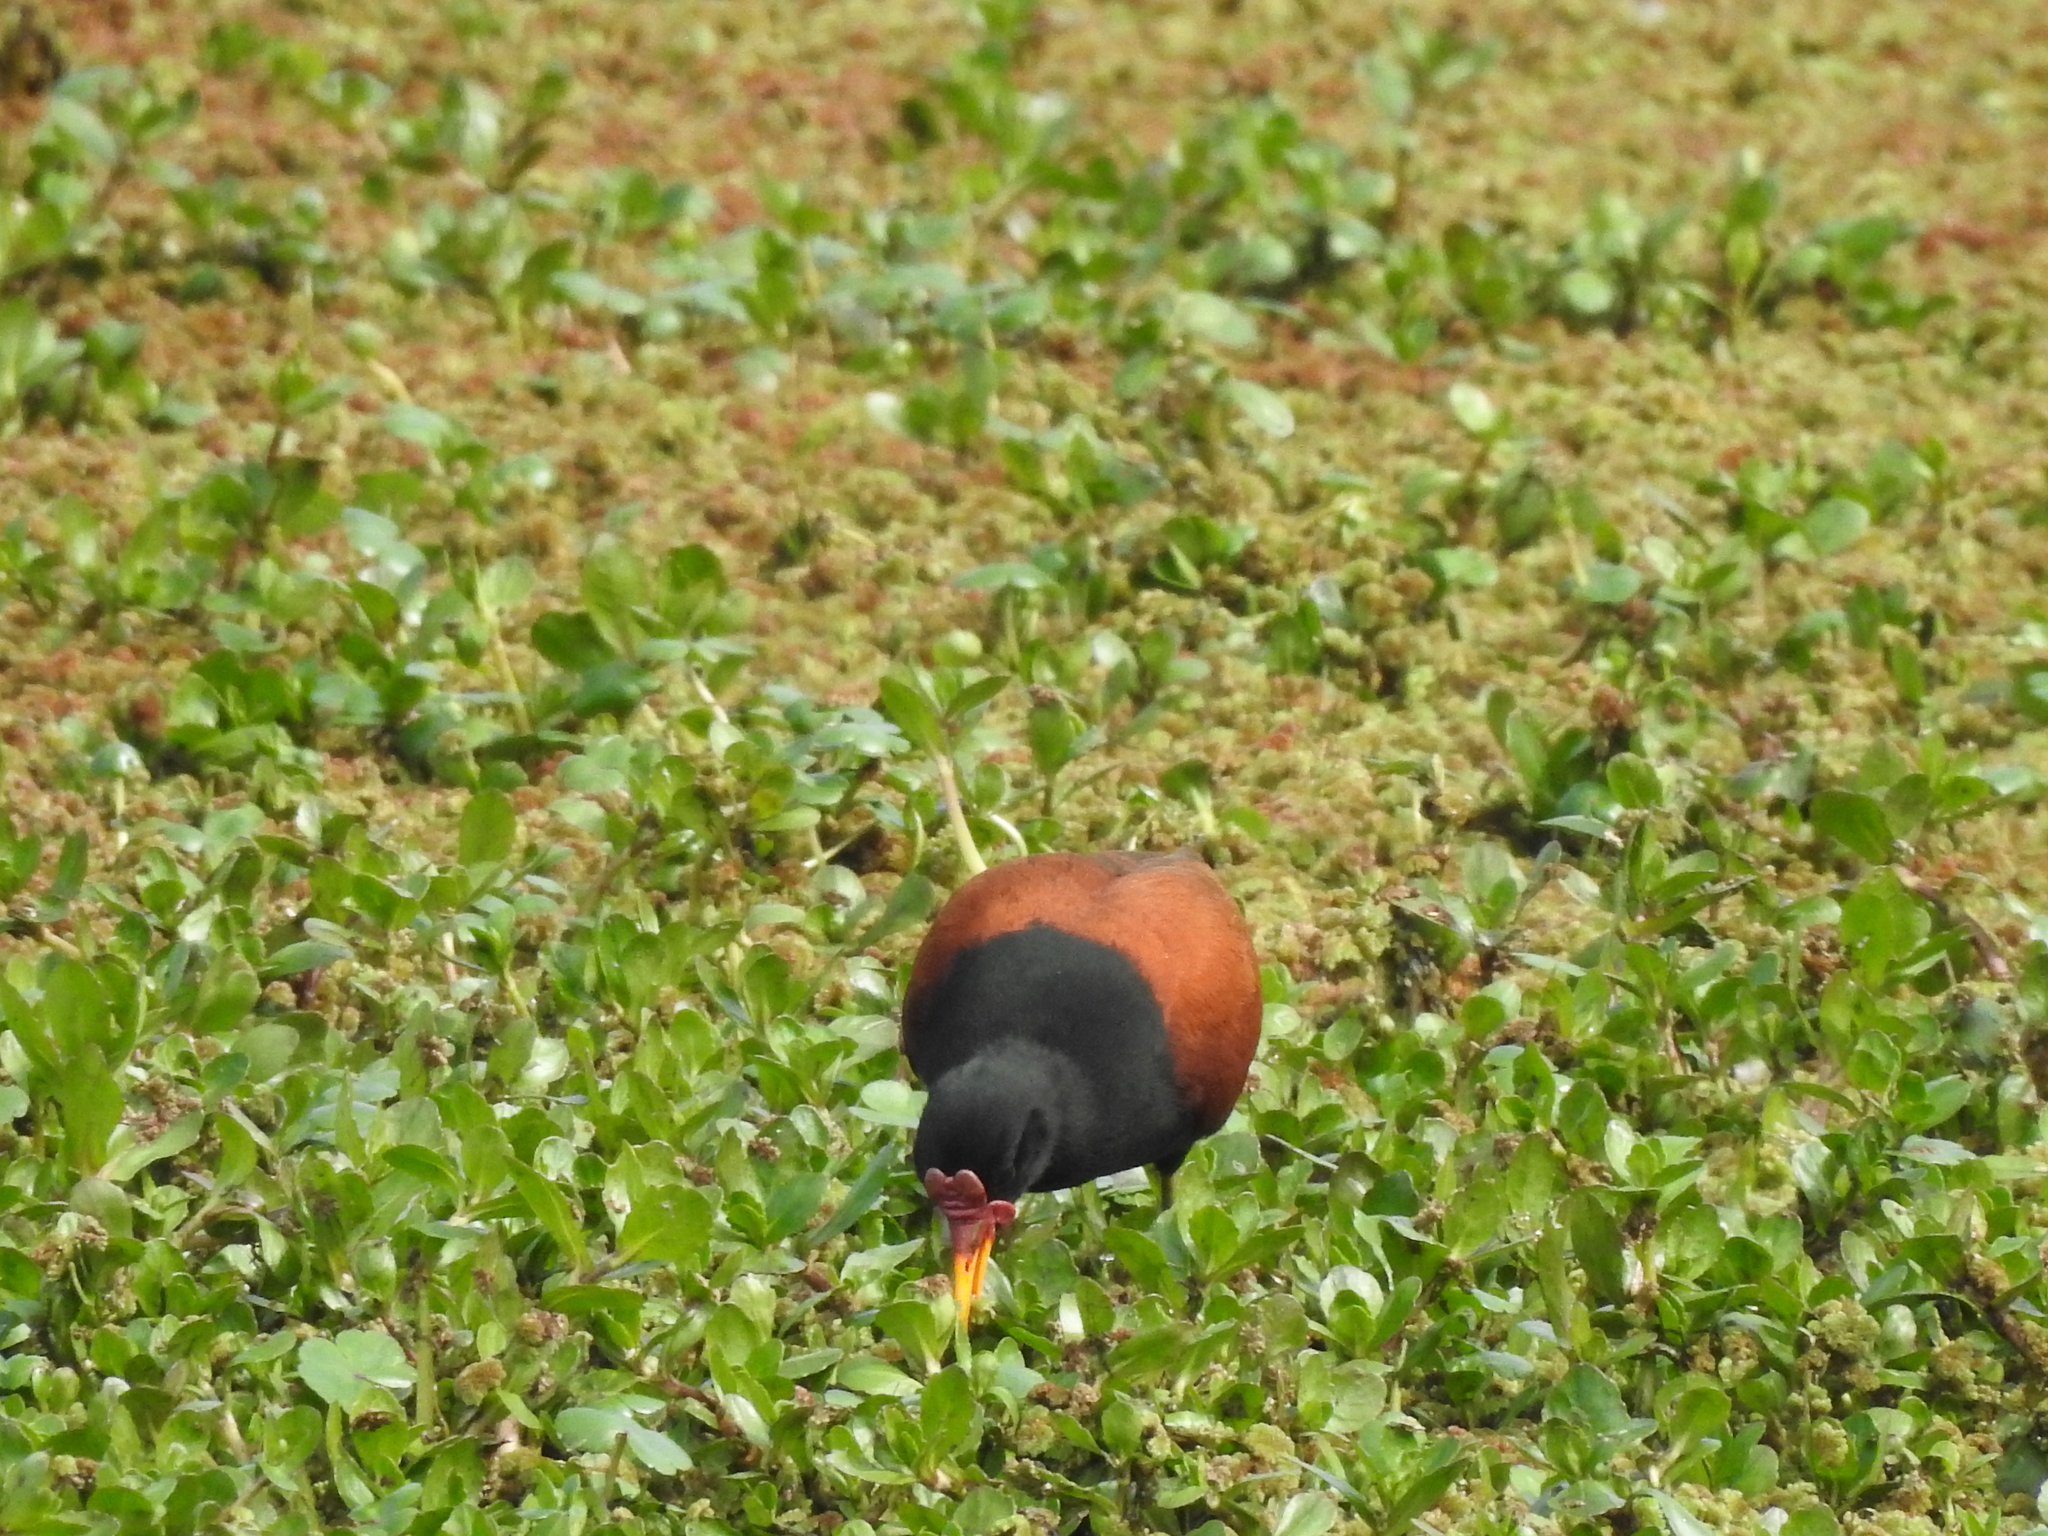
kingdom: Animalia
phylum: Chordata
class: Aves
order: Charadriiformes
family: Jacanidae
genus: Jacana
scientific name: Jacana jacana
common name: Wattled jacana
